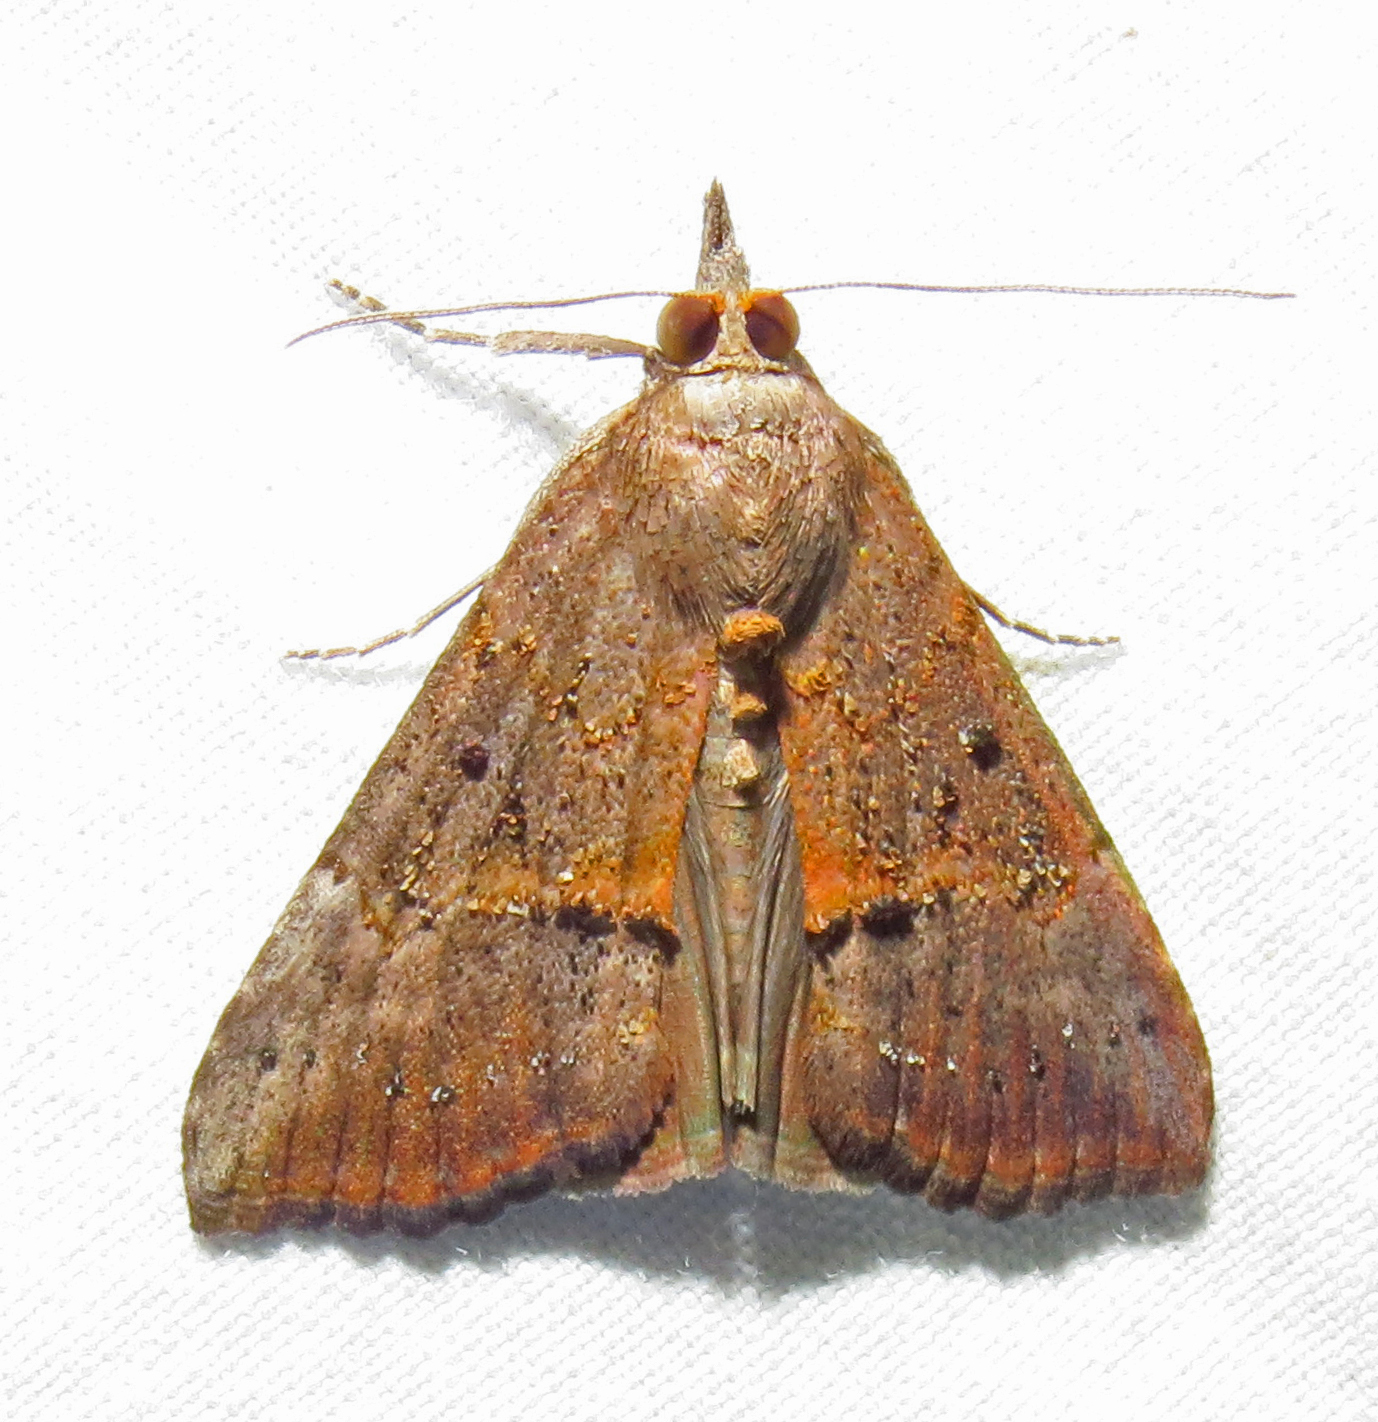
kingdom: Animalia
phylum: Arthropoda
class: Insecta
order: Lepidoptera
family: Erebidae
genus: Hypena
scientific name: Hypena scabra
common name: Green cloverworm
